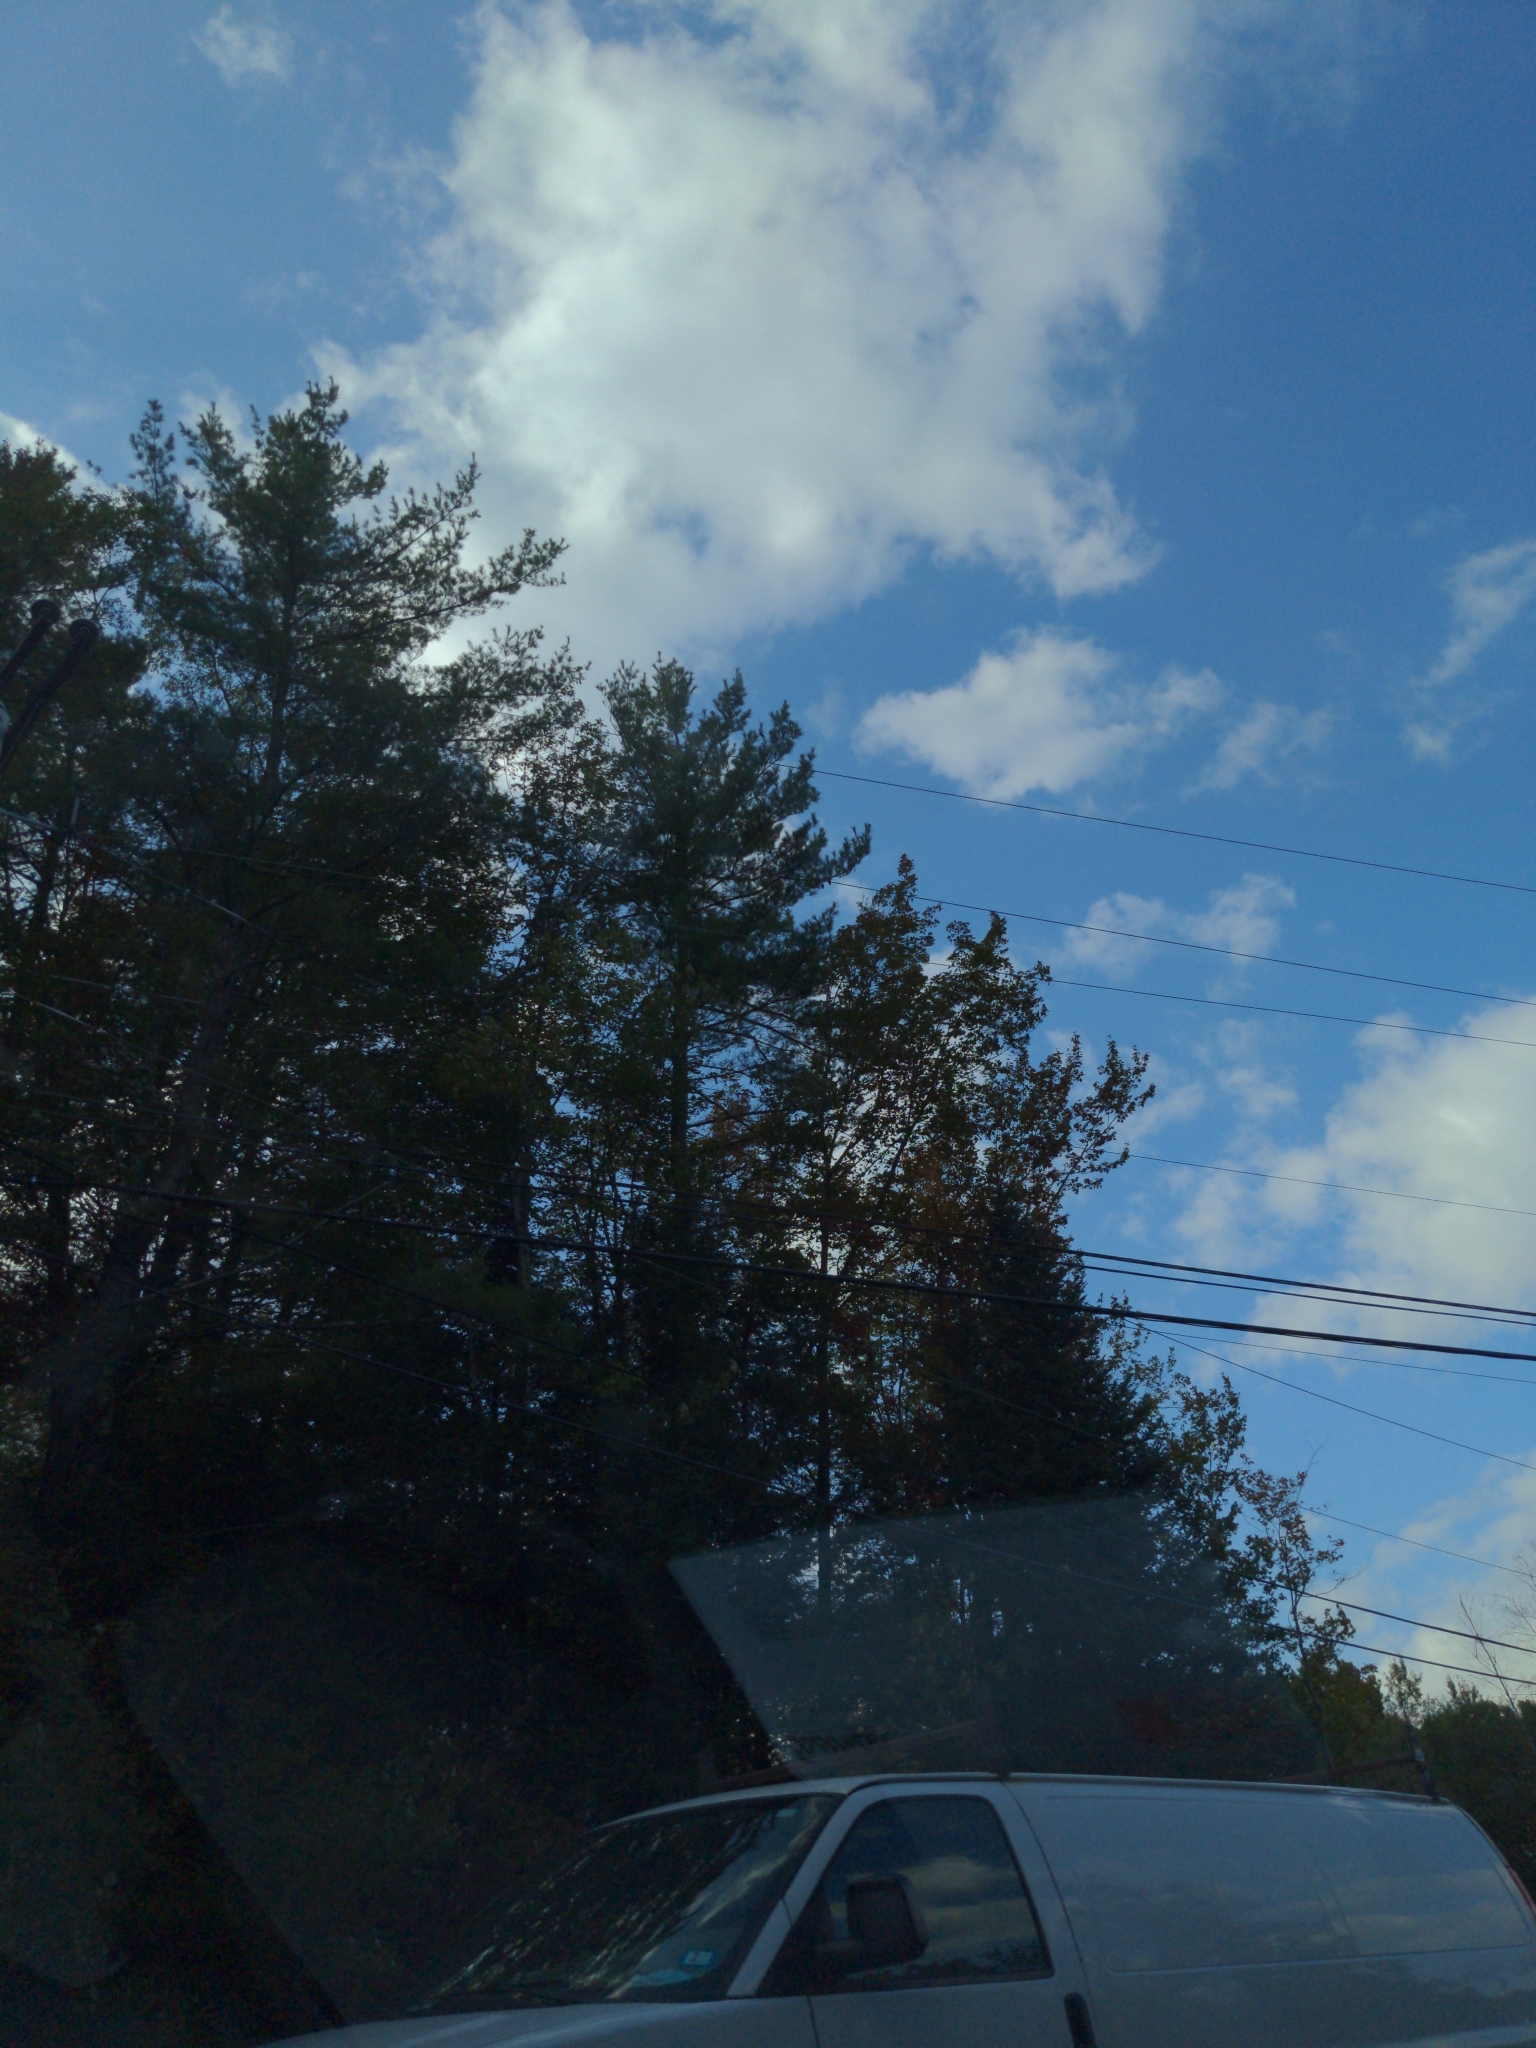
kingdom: Plantae
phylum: Tracheophyta
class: Pinopsida
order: Pinales
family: Pinaceae
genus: Pinus
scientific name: Pinus strobus
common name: Weymouth pine
